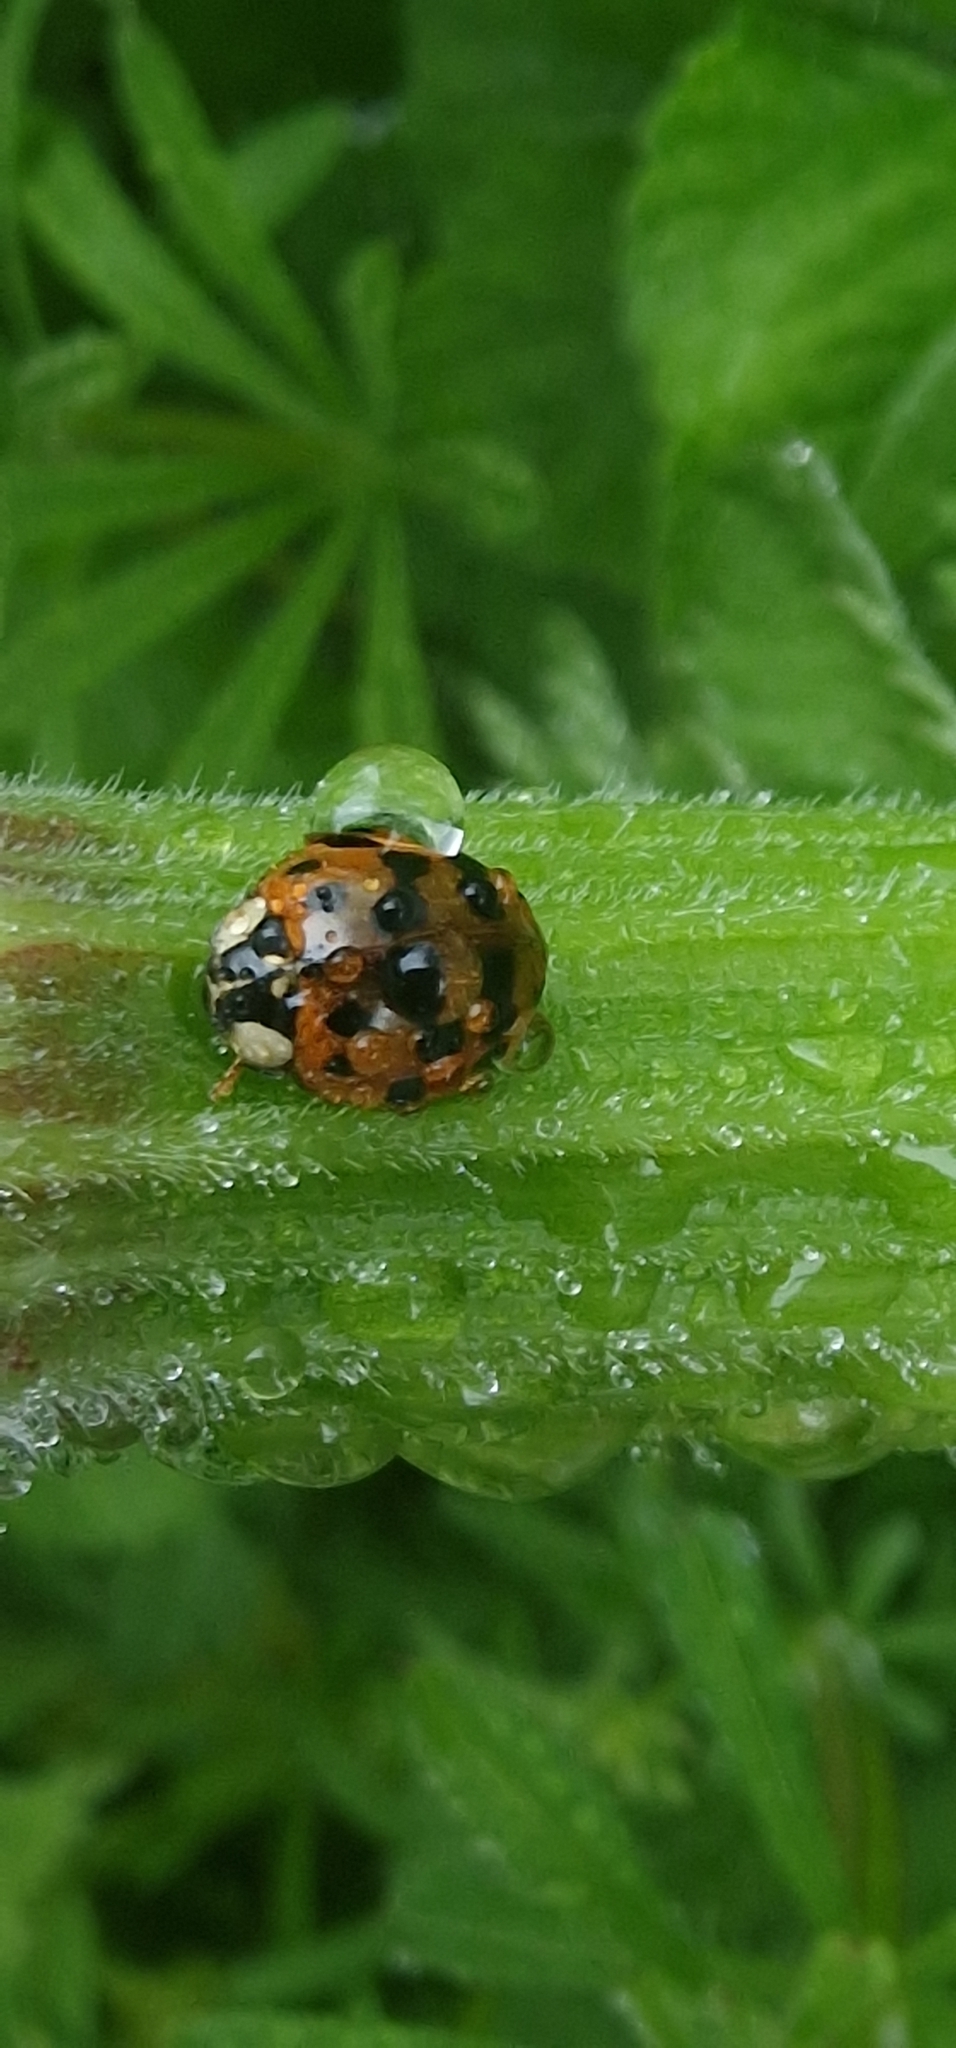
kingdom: Animalia
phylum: Arthropoda
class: Insecta
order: Coleoptera
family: Coccinellidae
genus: Harmonia
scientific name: Harmonia axyridis
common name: Harlequin ladybird
